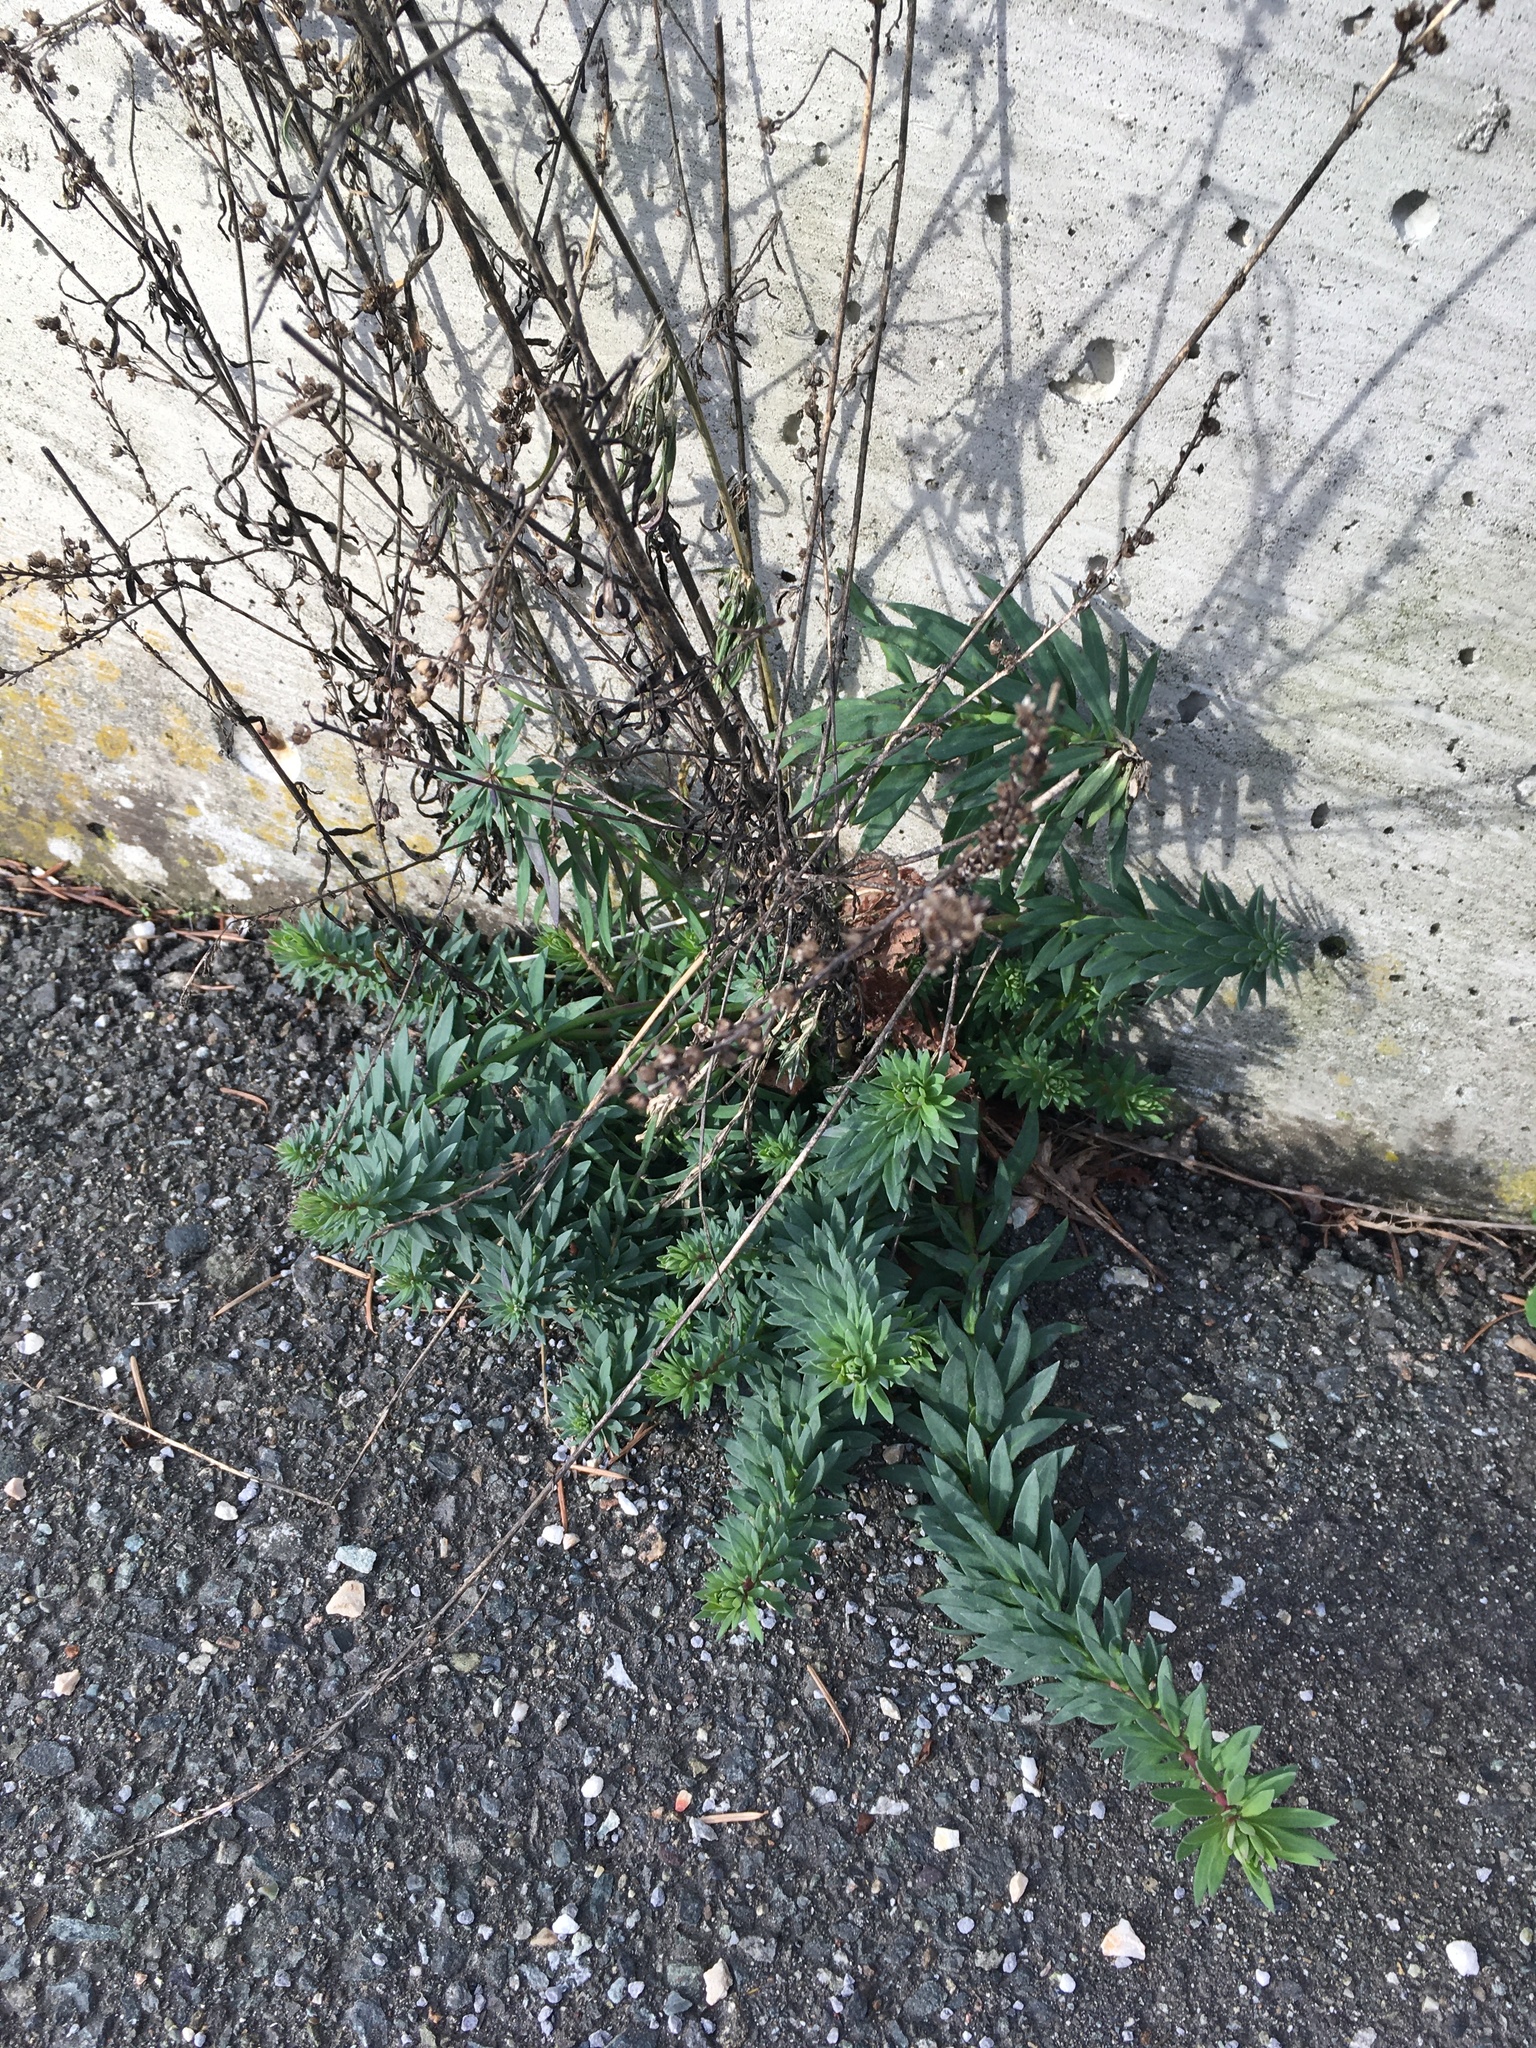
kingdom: Plantae
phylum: Tracheophyta
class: Magnoliopsida
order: Lamiales
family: Plantaginaceae
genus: Linaria
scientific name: Linaria purpurea
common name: Purple toadflax
